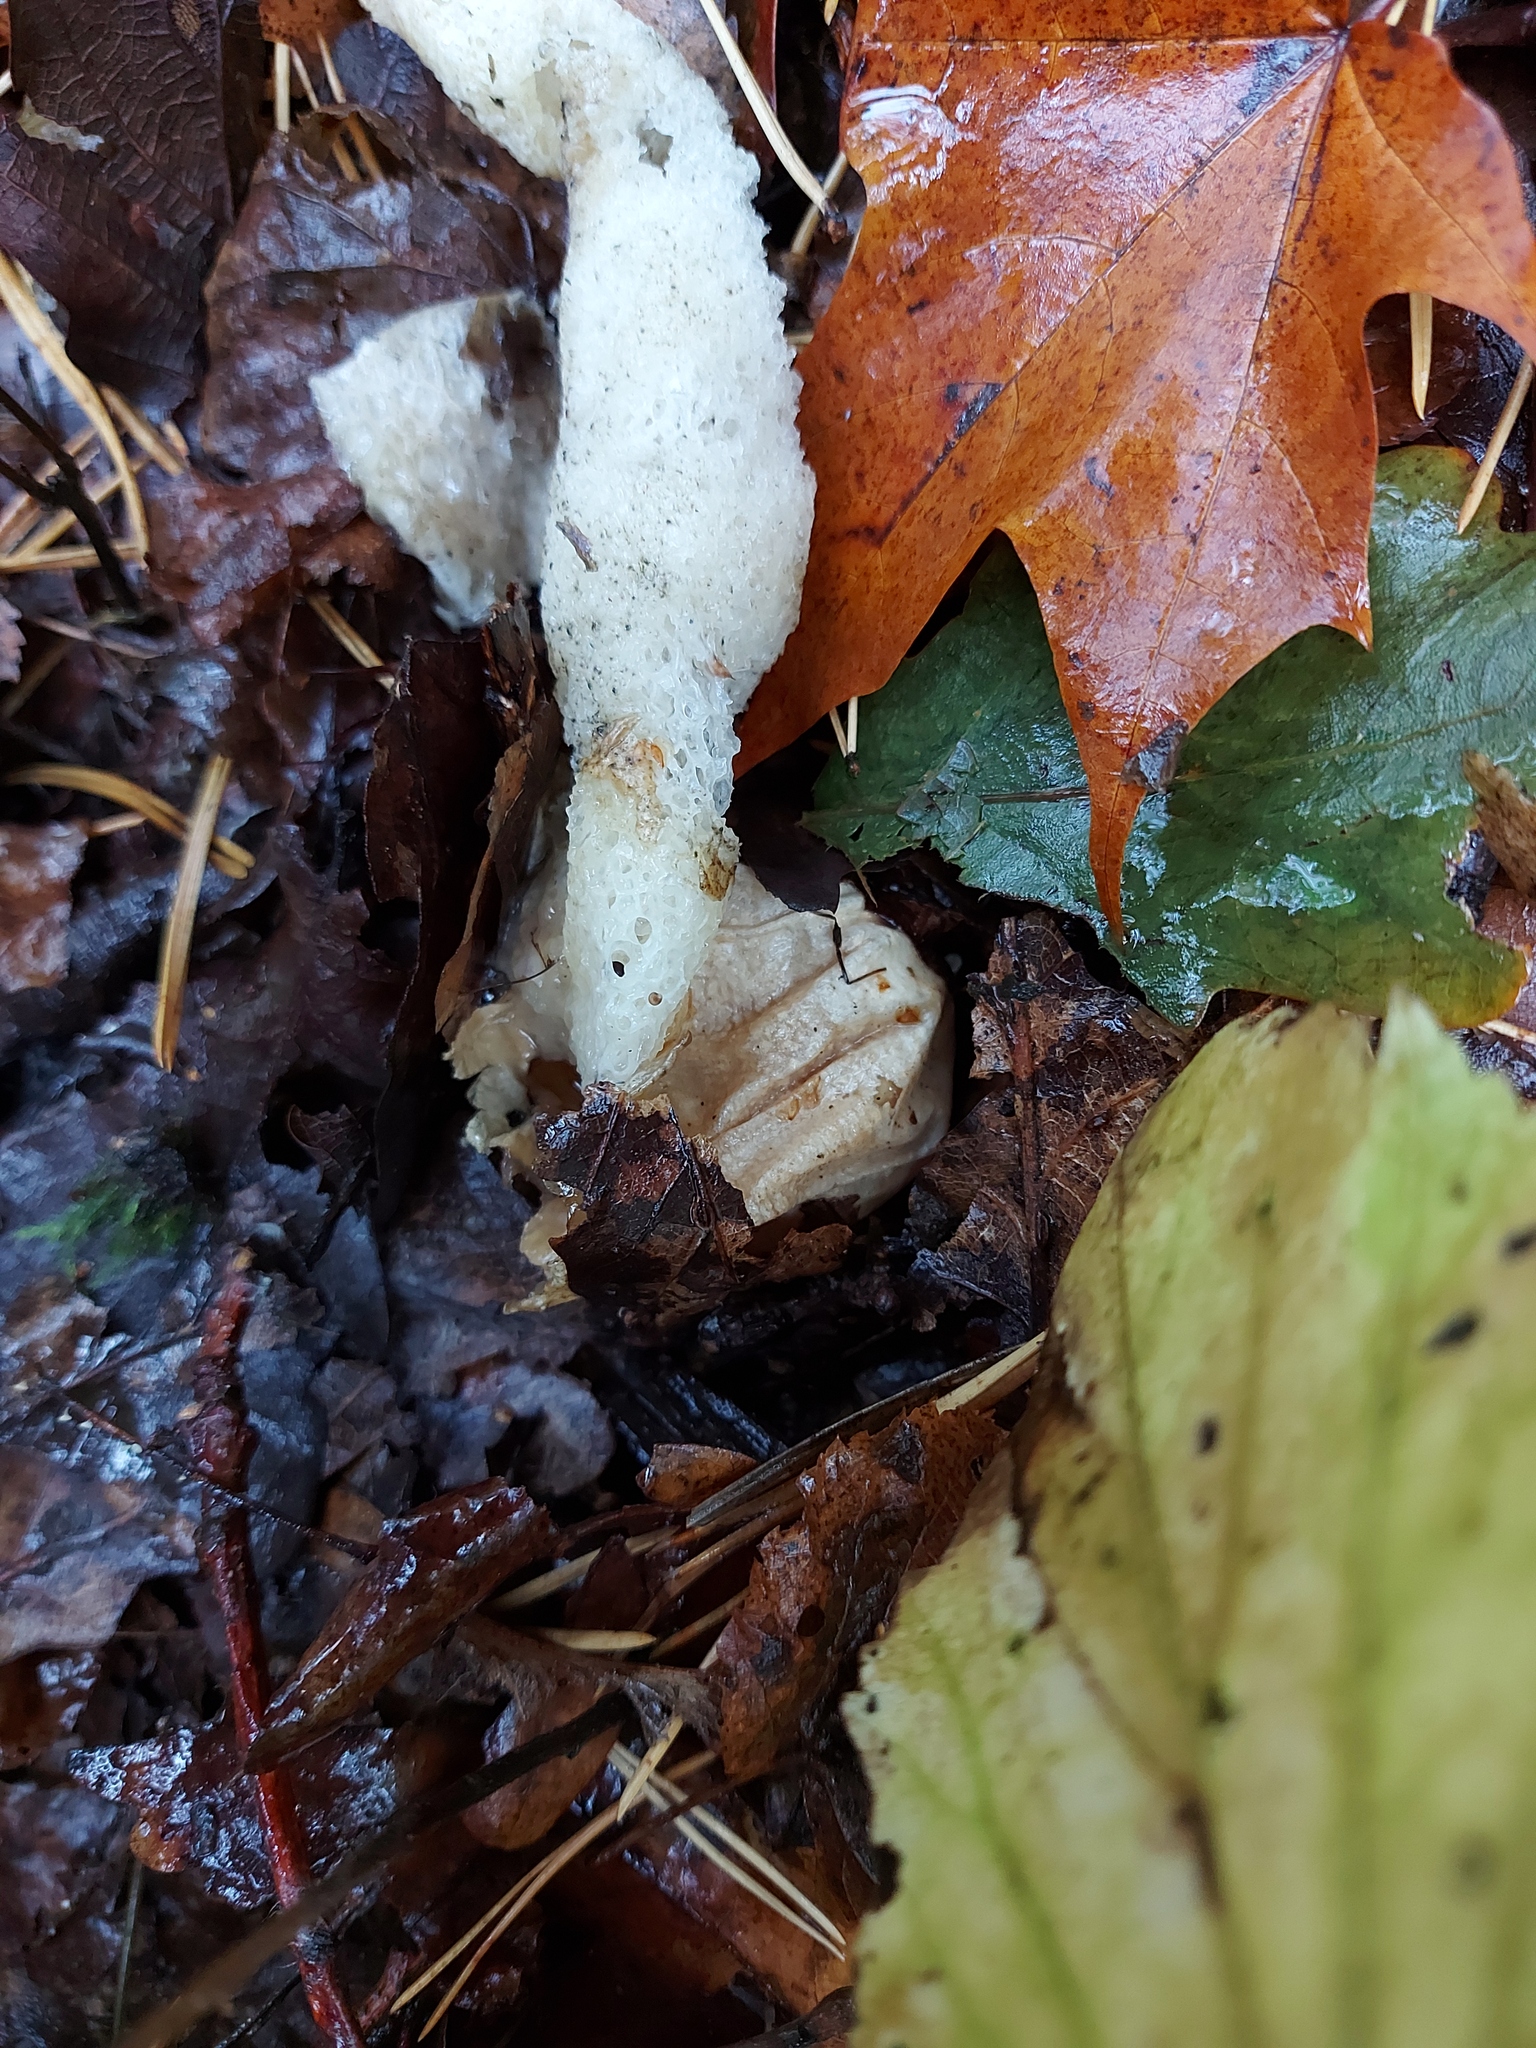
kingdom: Fungi
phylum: Basidiomycota
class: Agaricomycetes
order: Phallales
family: Phallaceae
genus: Phallus
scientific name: Phallus impudicus
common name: Common stinkhorn
